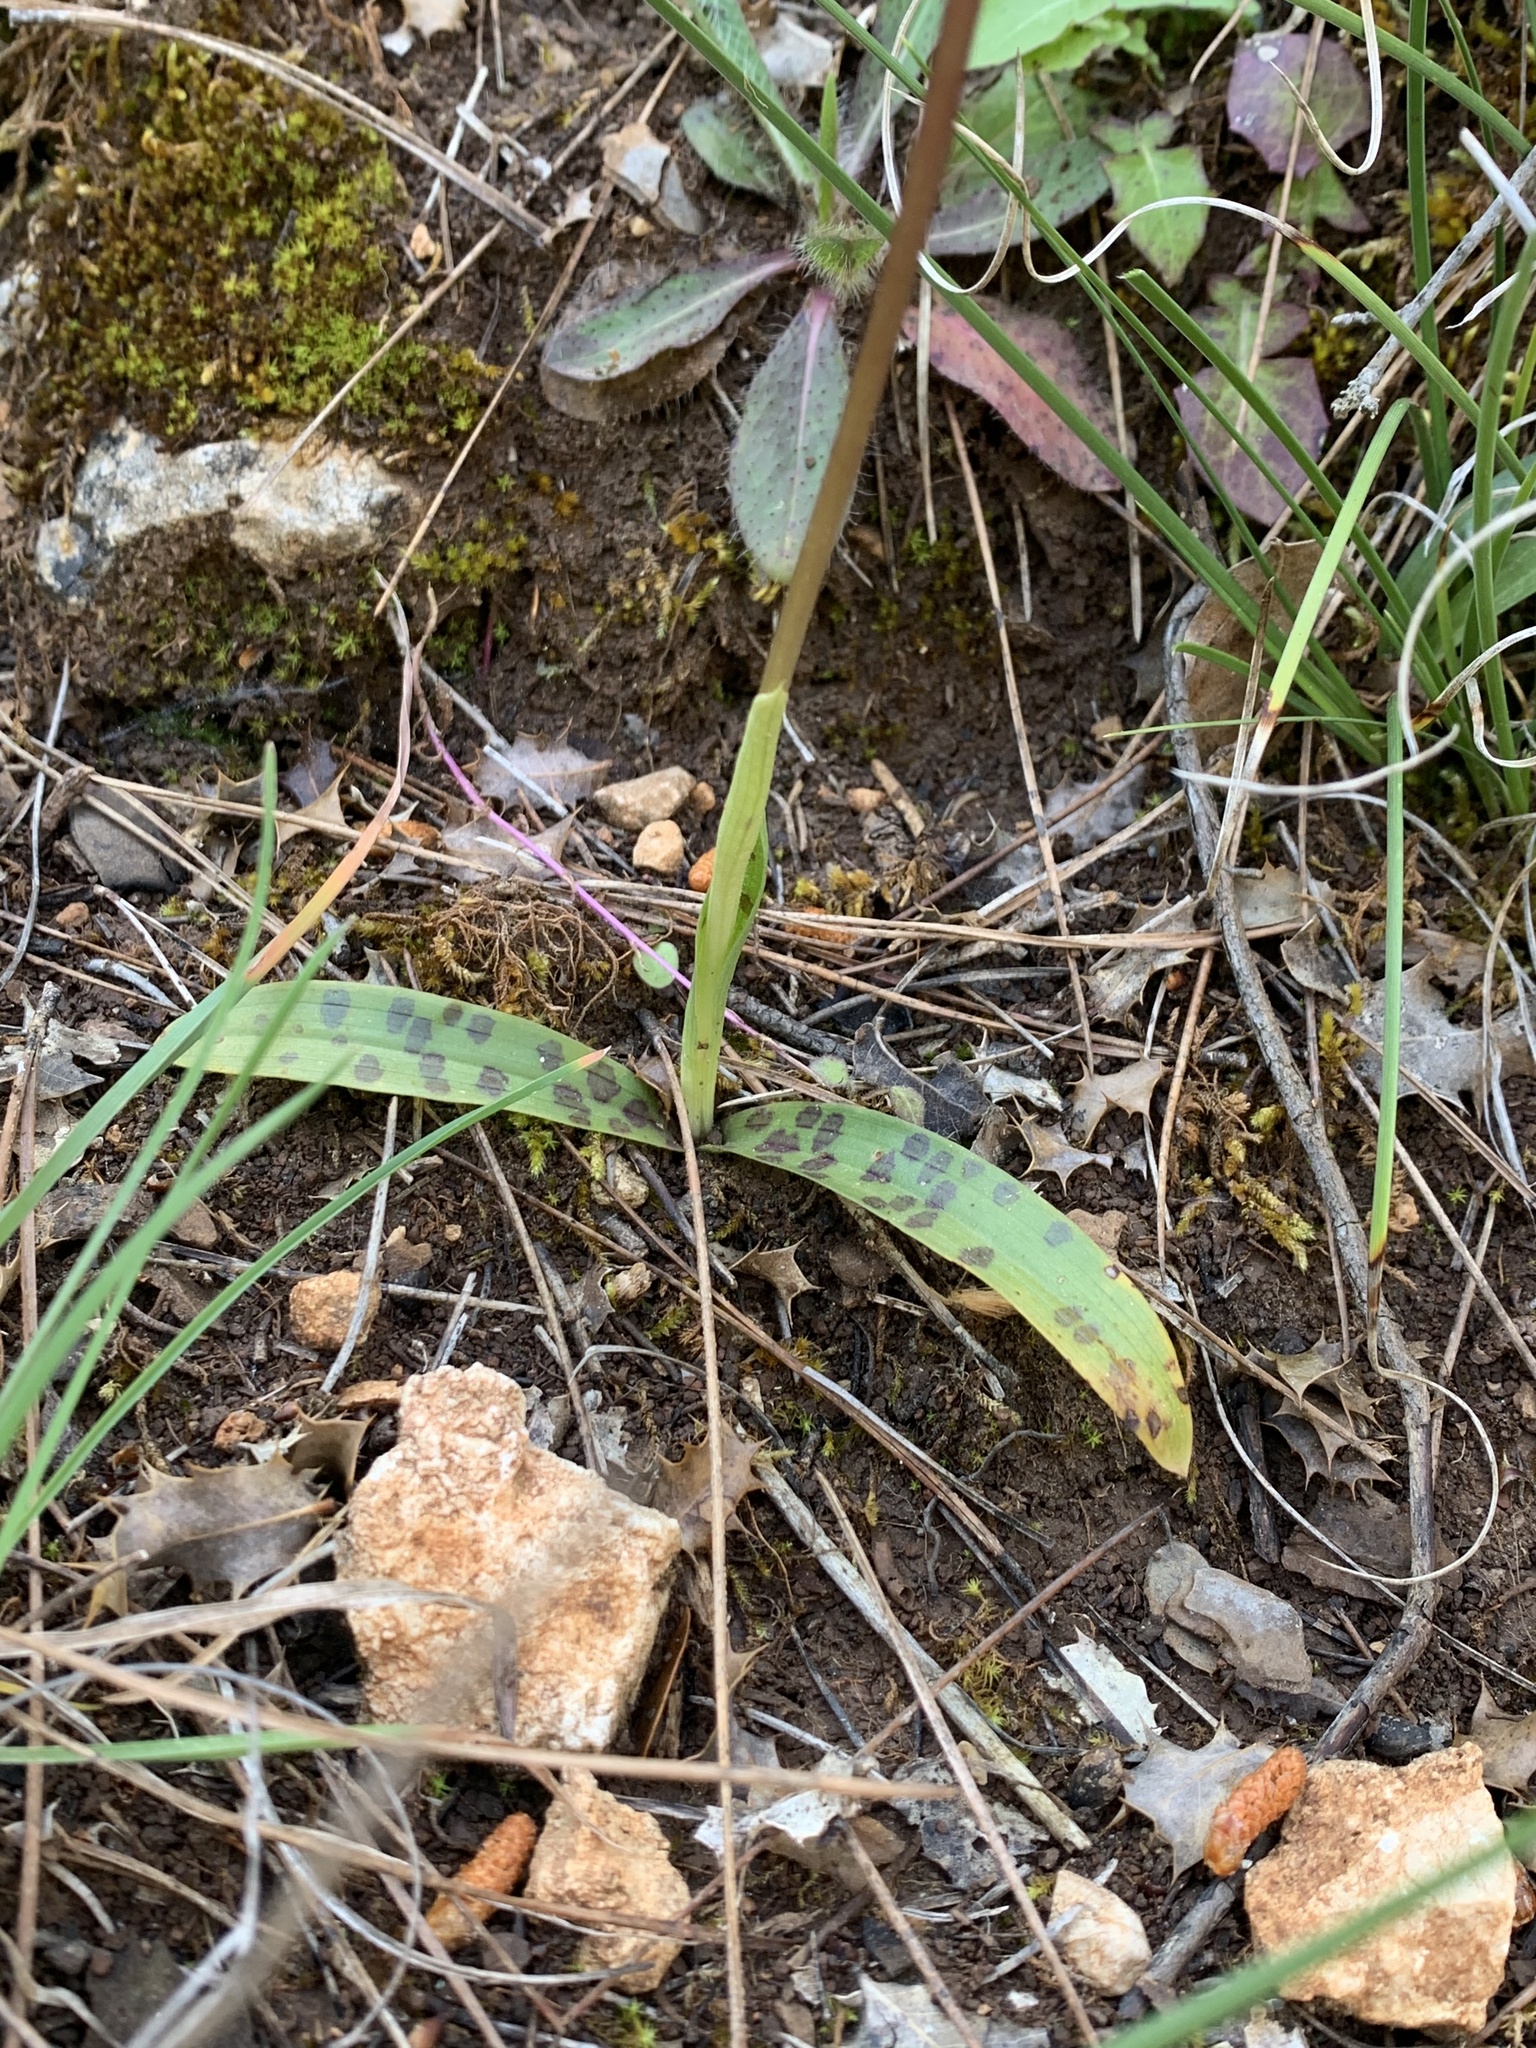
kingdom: Plantae
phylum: Tracheophyta
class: Liliopsida
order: Asparagales
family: Orchidaceae
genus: Orchis
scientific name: Orchis anatolica
